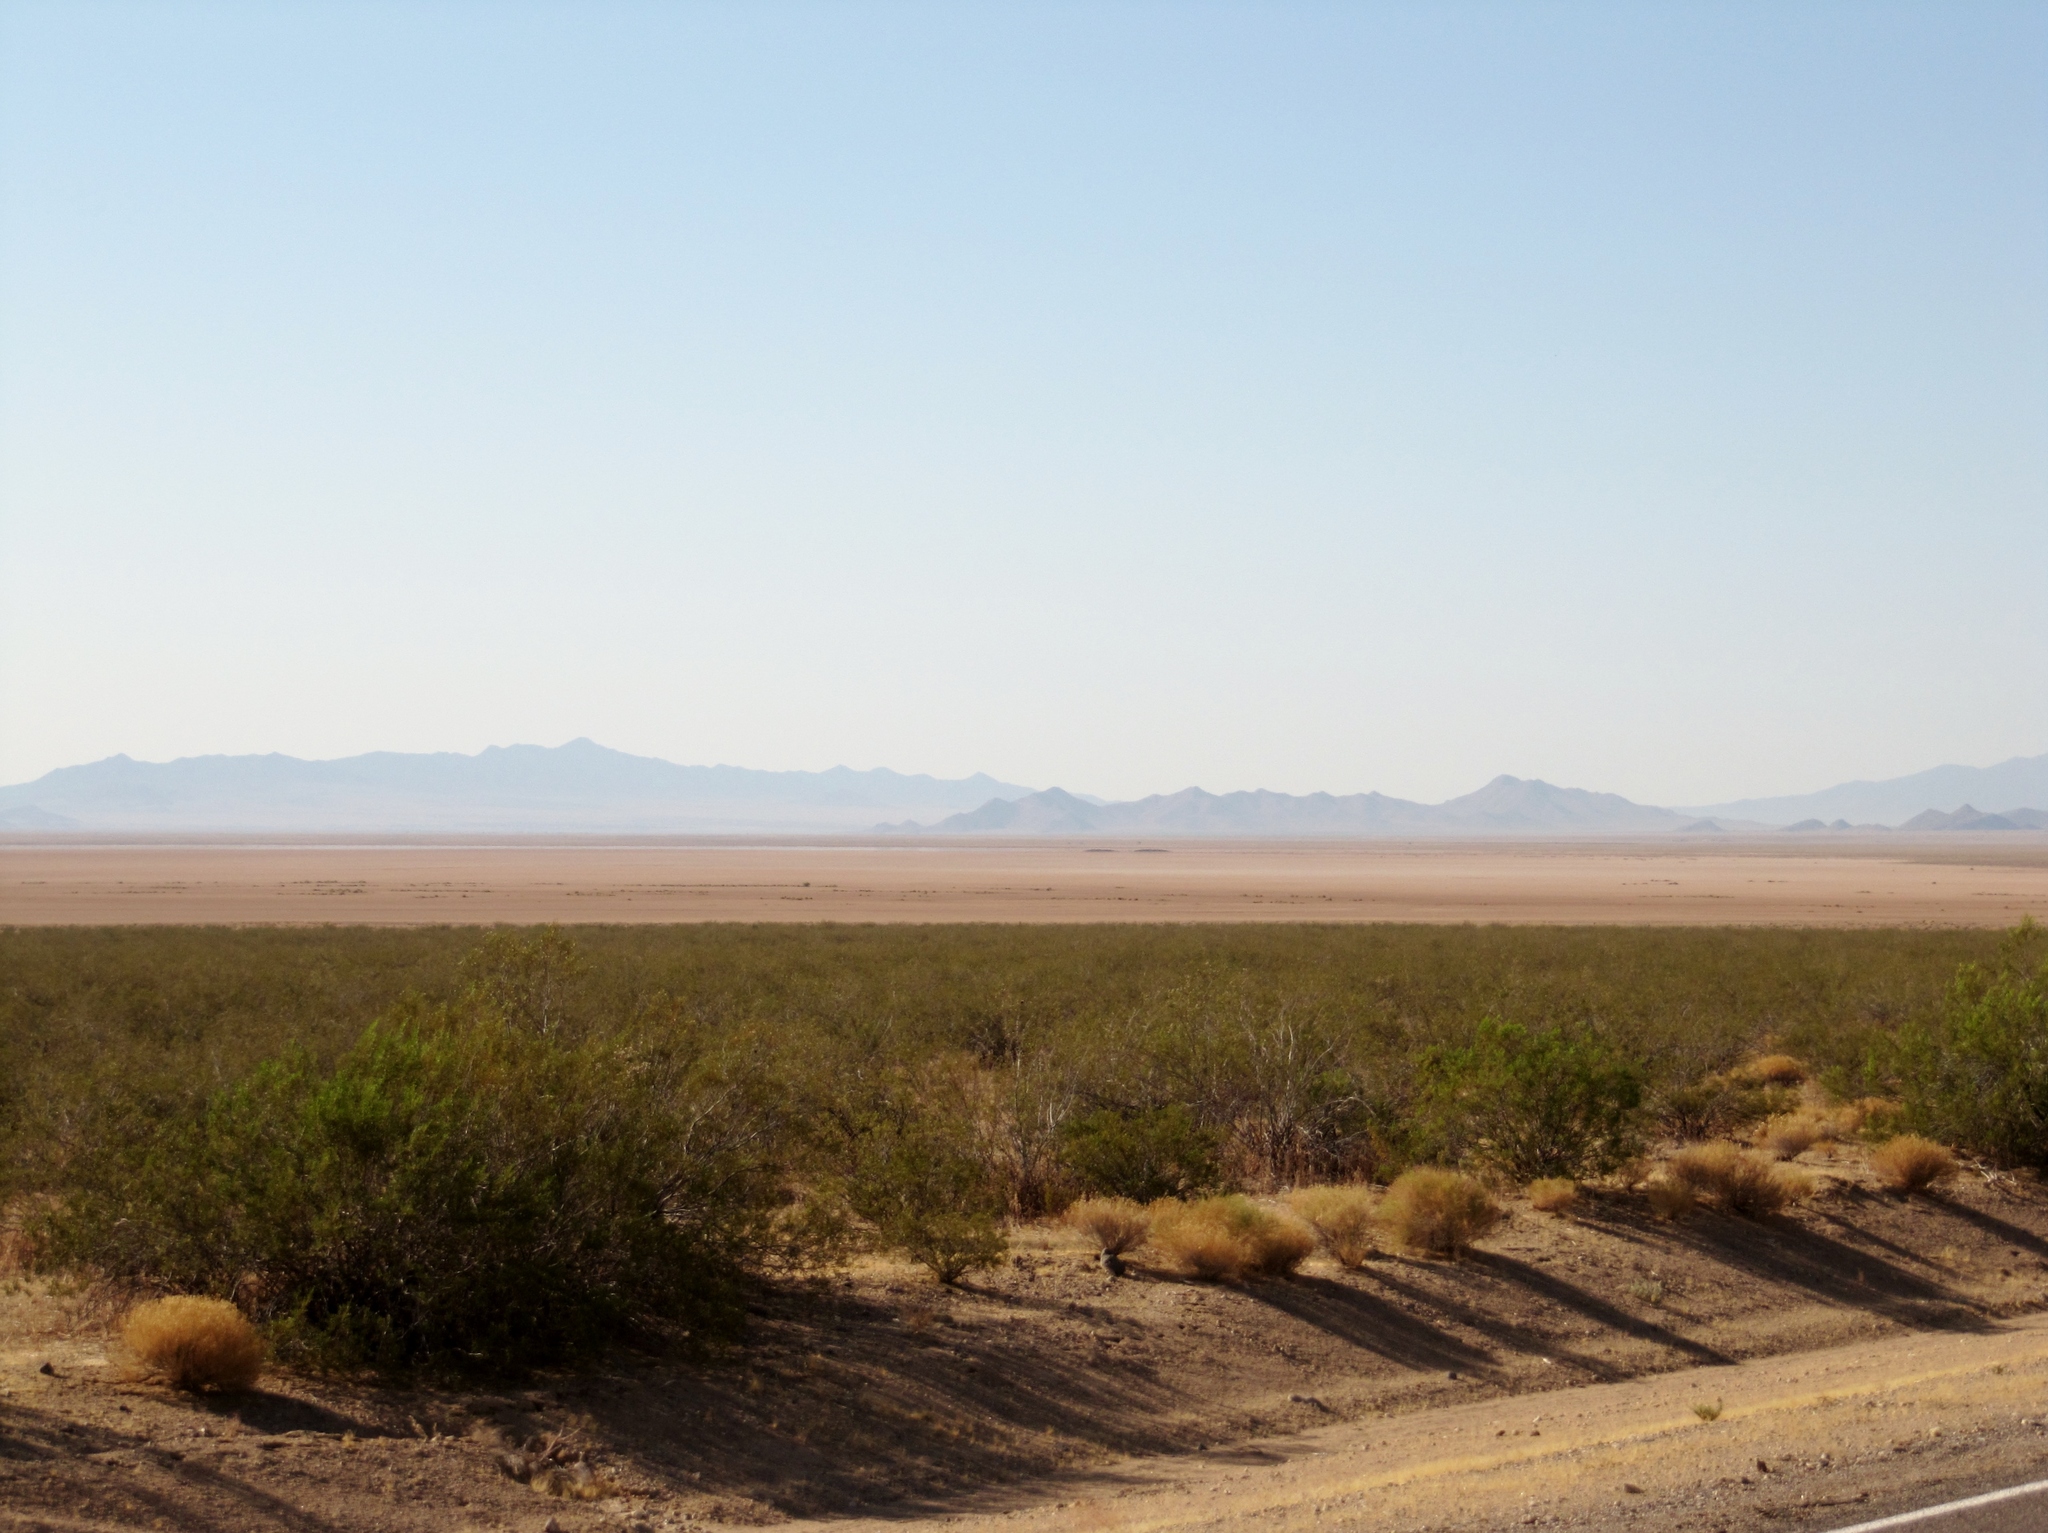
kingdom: Plantae
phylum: Tracheophyta
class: Magnoliopsida
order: Zygophyllales
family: Zygophyllaceae
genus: Larrea
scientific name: Larrea tridentata
